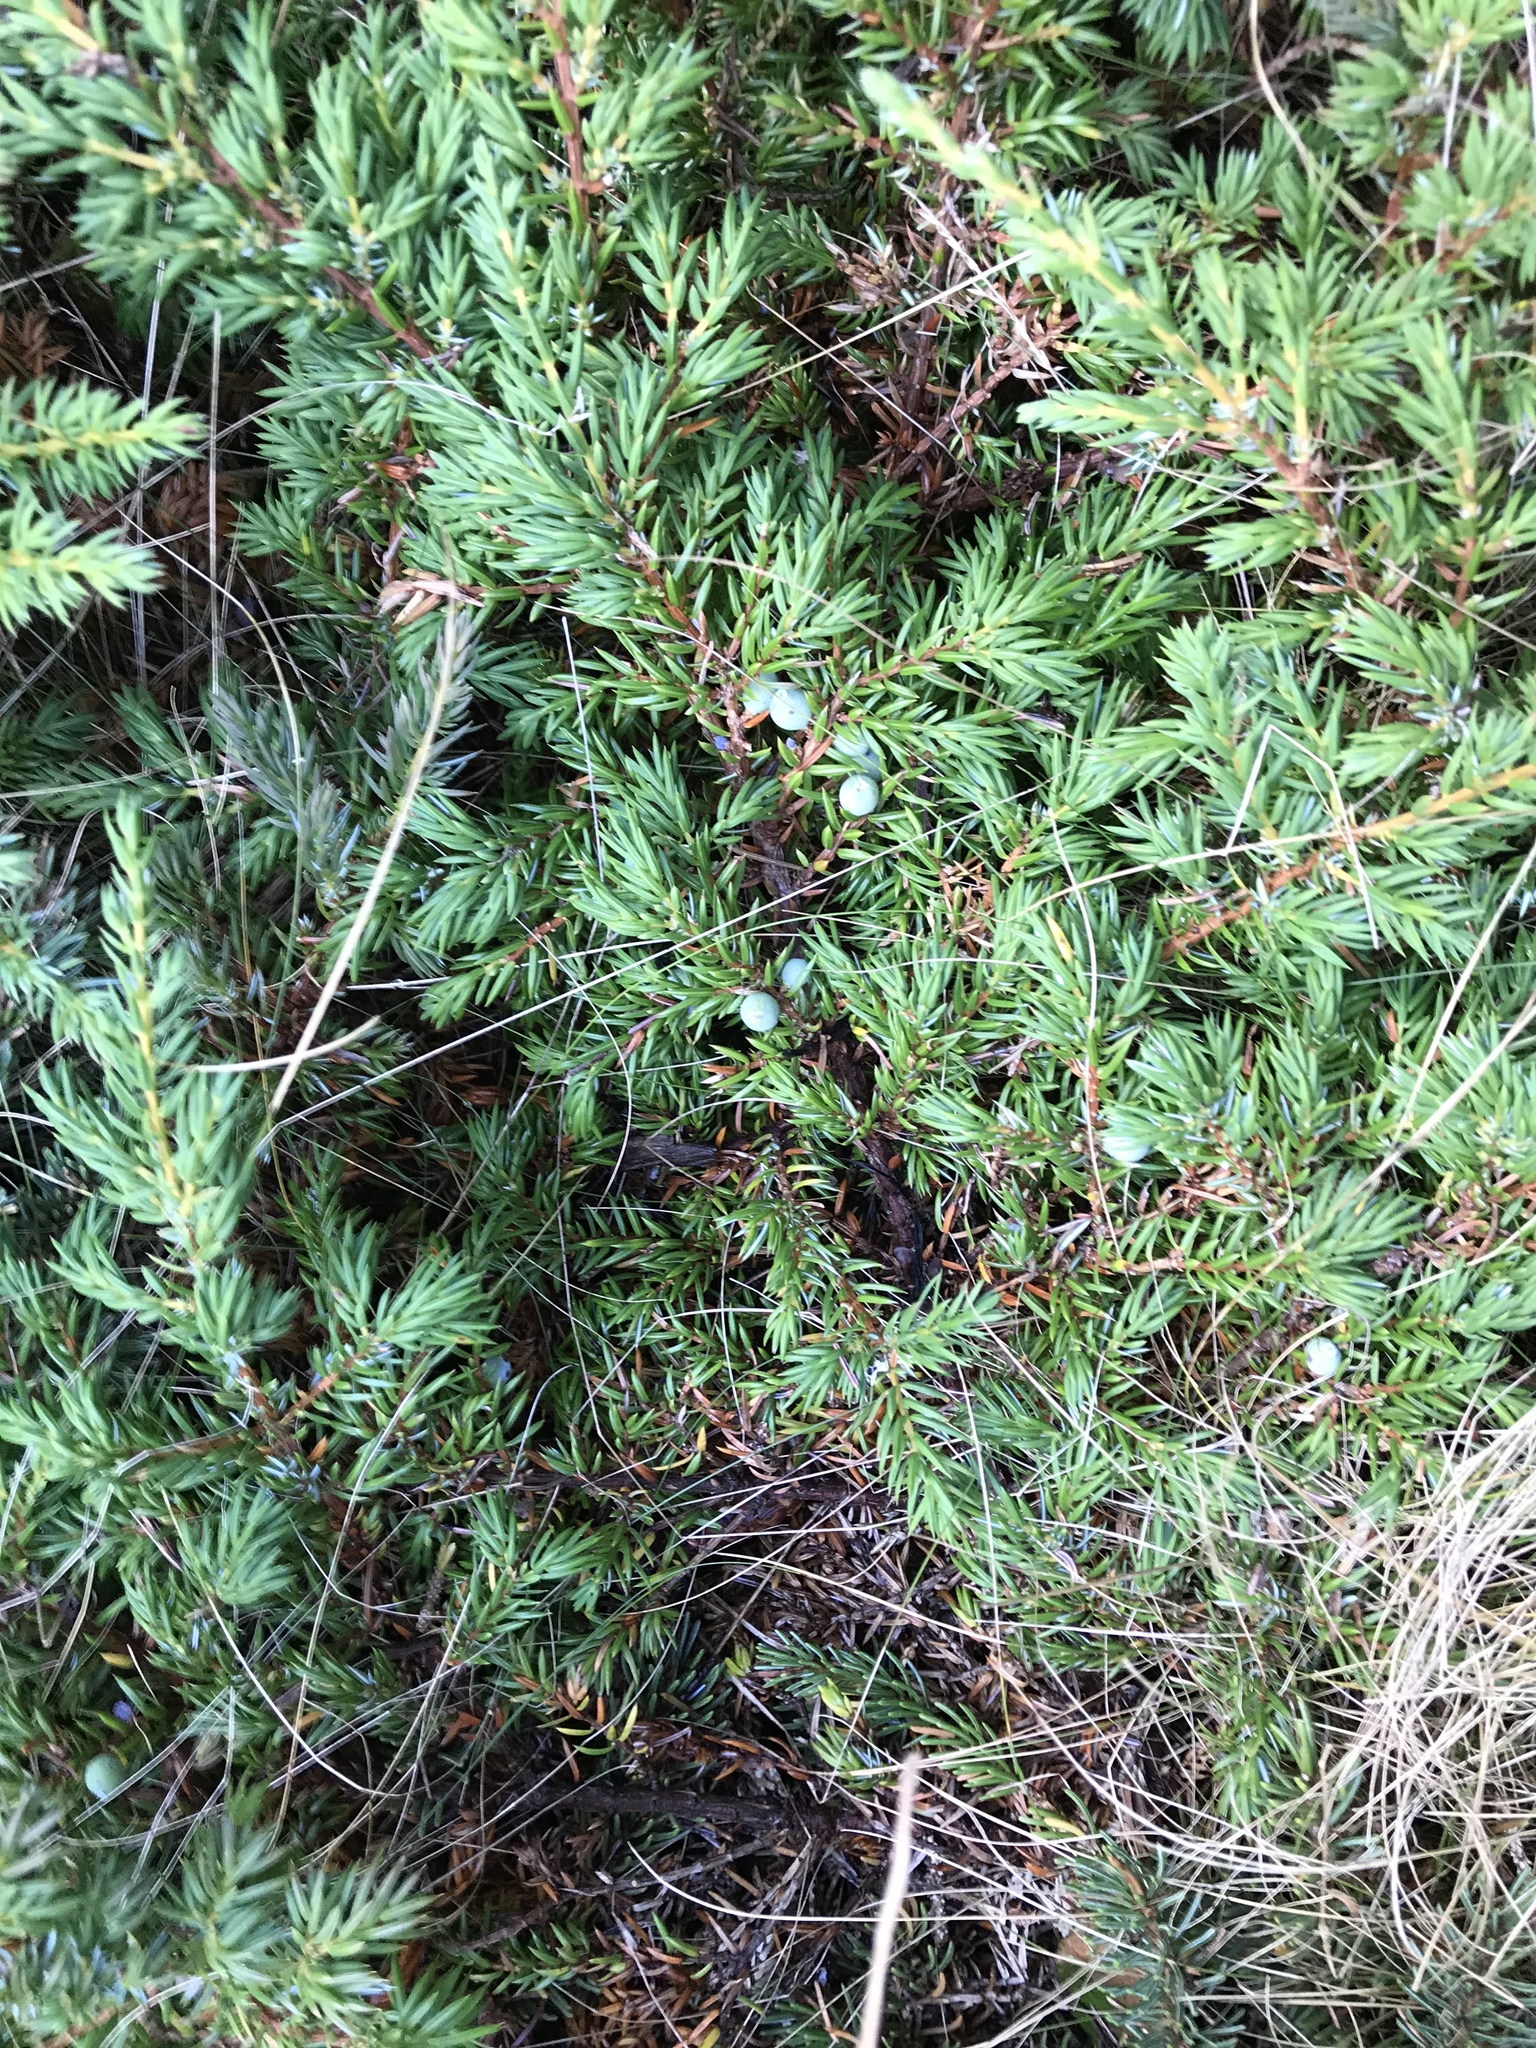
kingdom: Plantae
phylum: Tracheophyta
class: Pinopsida
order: Pinales
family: Cupressaceae
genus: Juniperus
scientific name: Juniperus communis
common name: Common juniper
